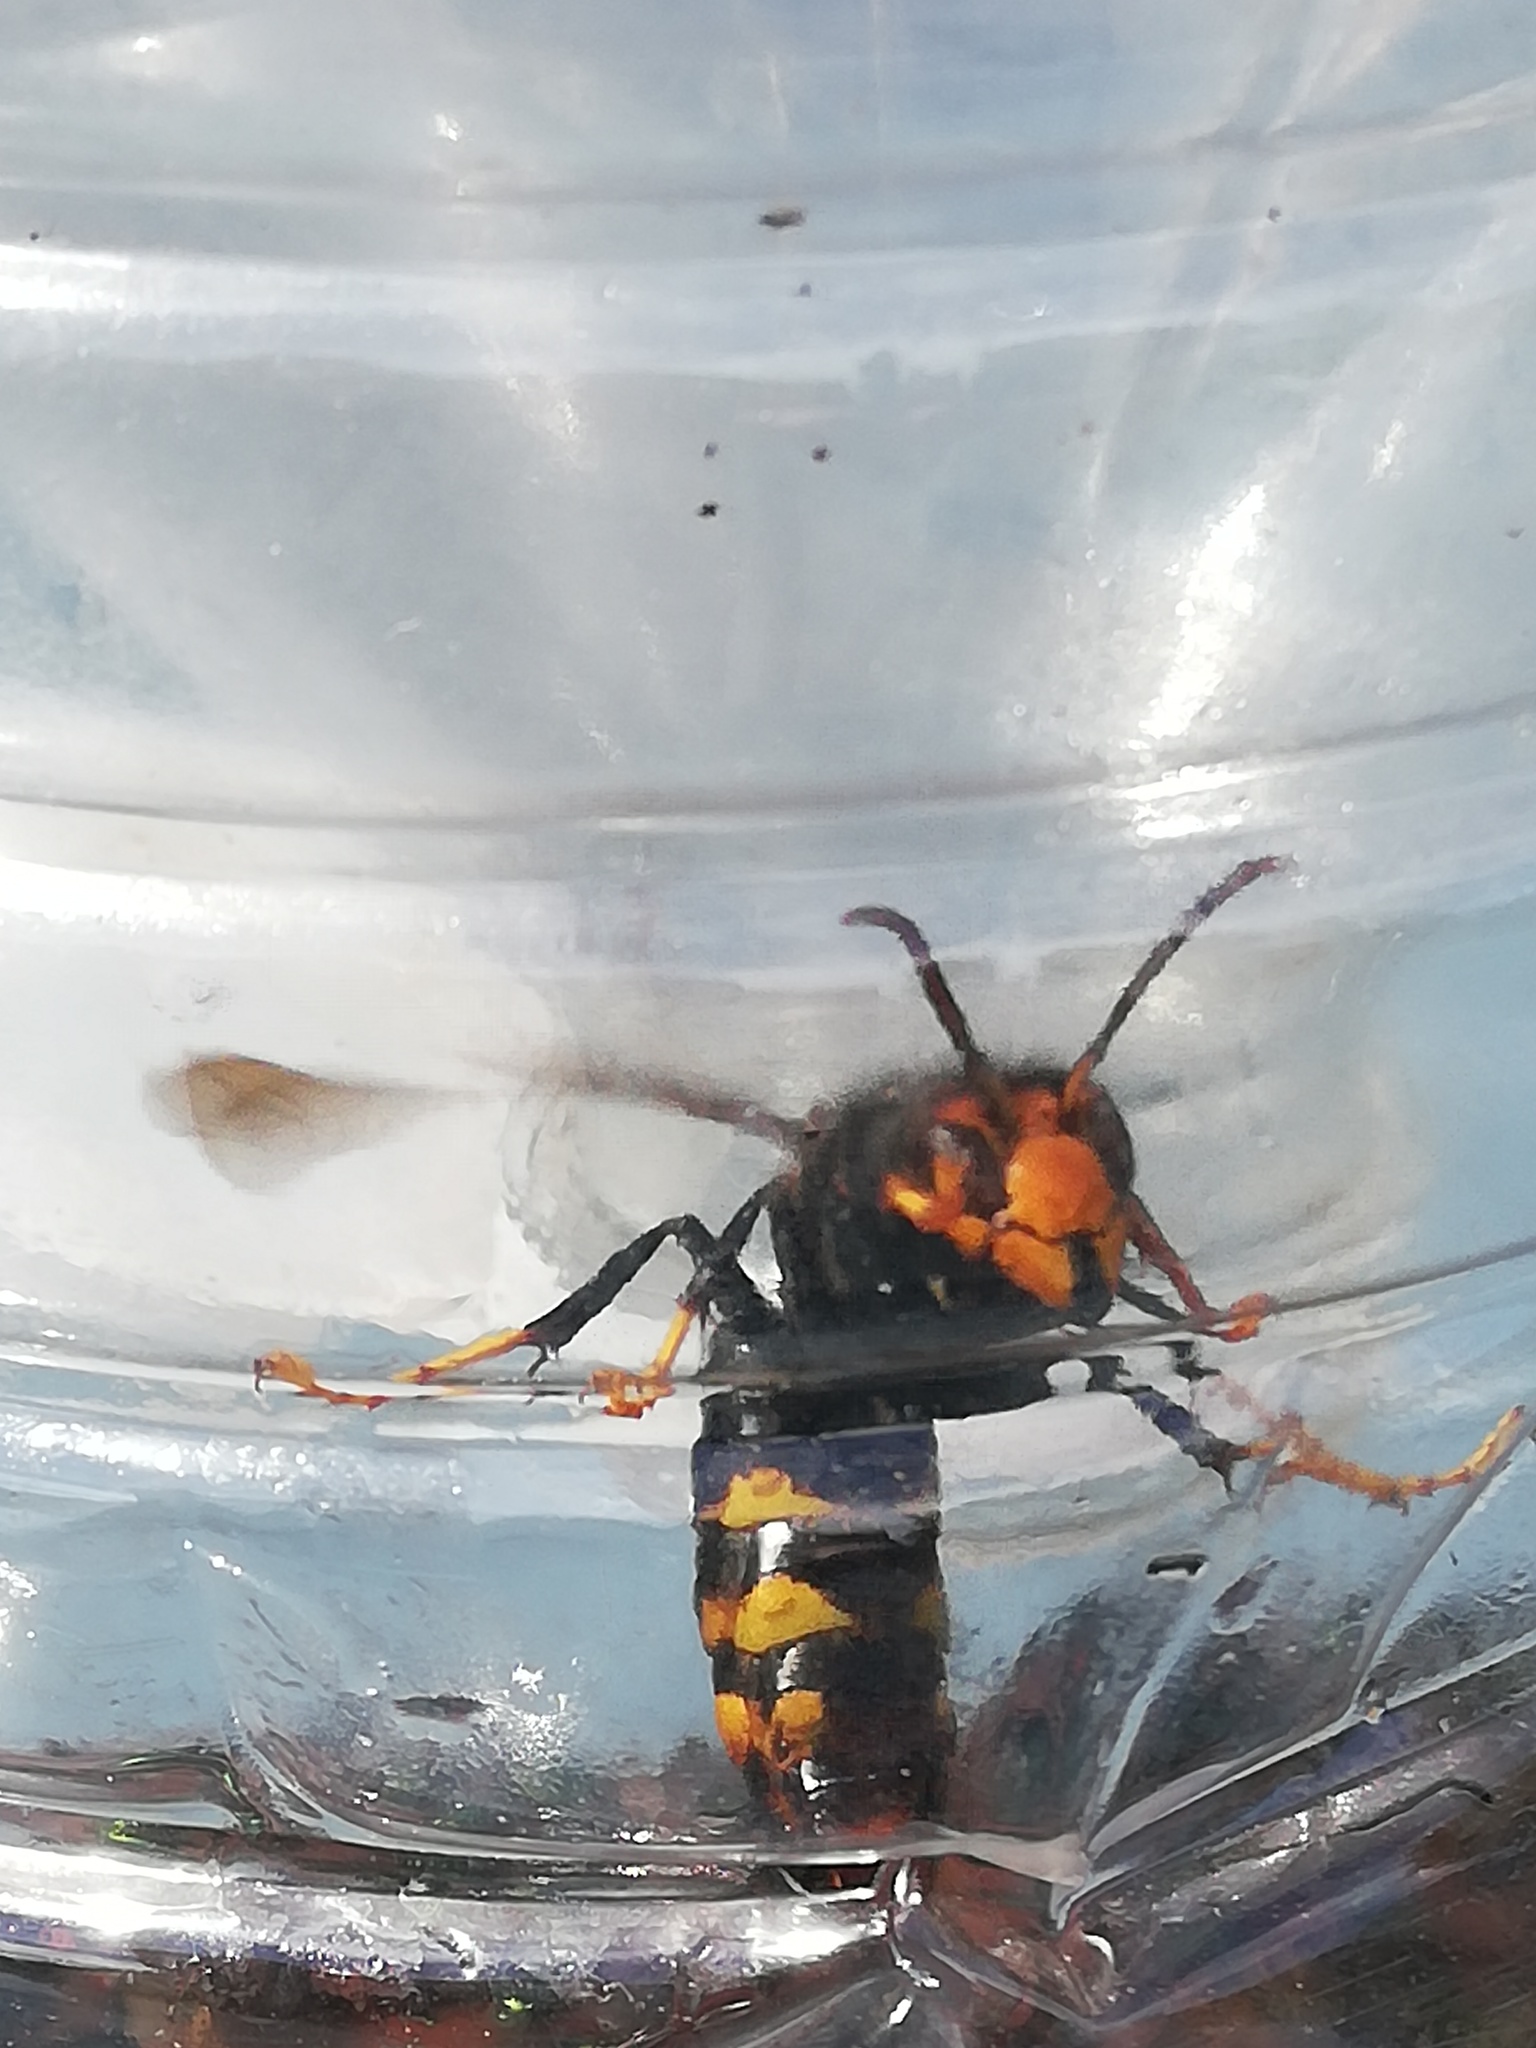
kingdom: Animalia
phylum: Arthropoda
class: Insecta
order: Hymenoptera
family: Vespidae
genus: Vespa
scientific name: Vespa velutina
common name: Asian hornet
